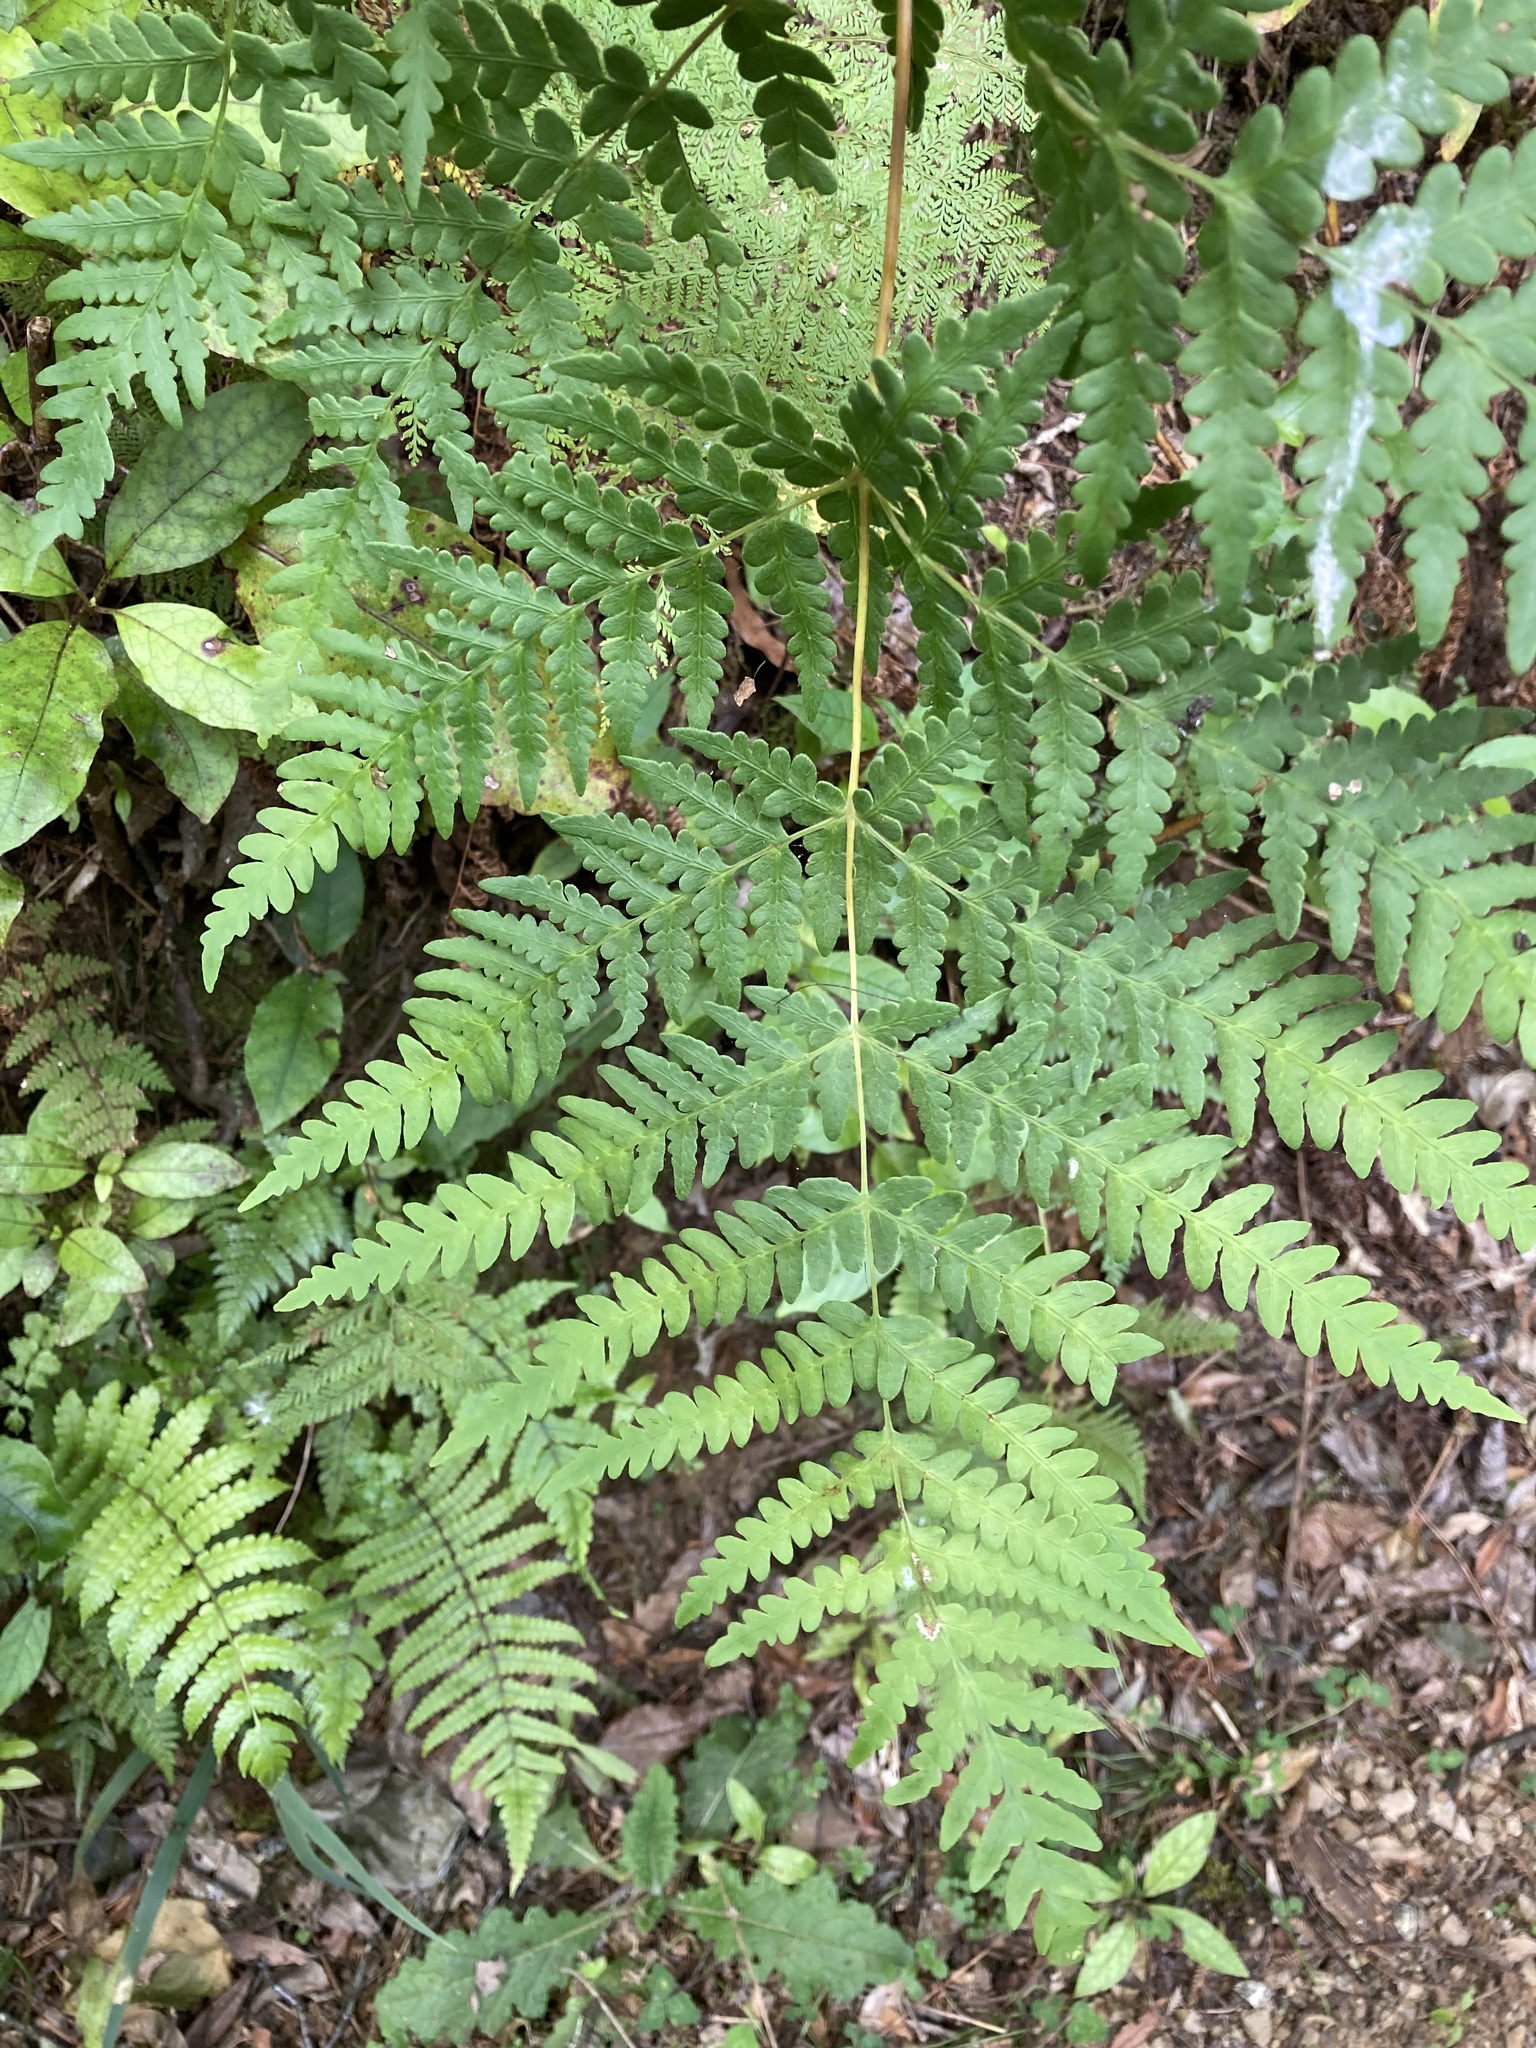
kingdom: Plantae
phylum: Tracheophyta
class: Polypodiopsida
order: Polypodiales
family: Dennstaedtiaceae
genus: Histiopteris
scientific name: Histiopteris incisa
